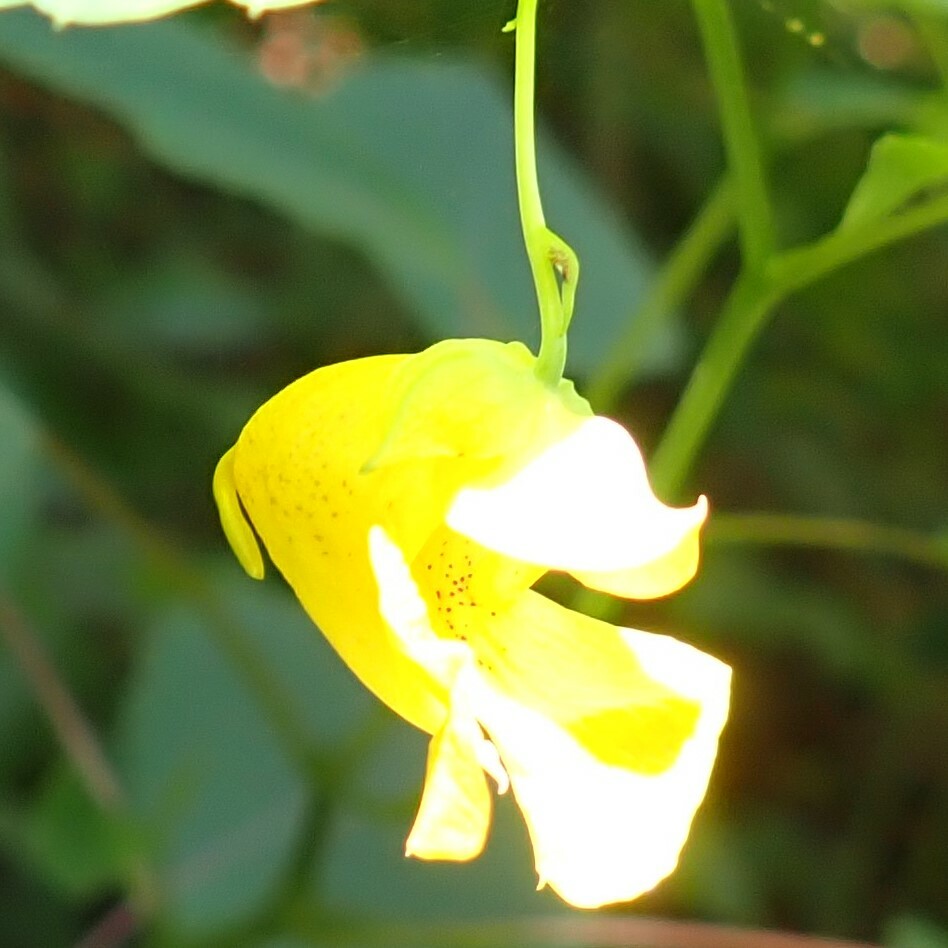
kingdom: Plantae
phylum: Tracheophyta
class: Magnoliopsida
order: Ericales
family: Balsaminaceae
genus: Impatiens
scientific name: Impatiens pallida
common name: Pale snapweed
